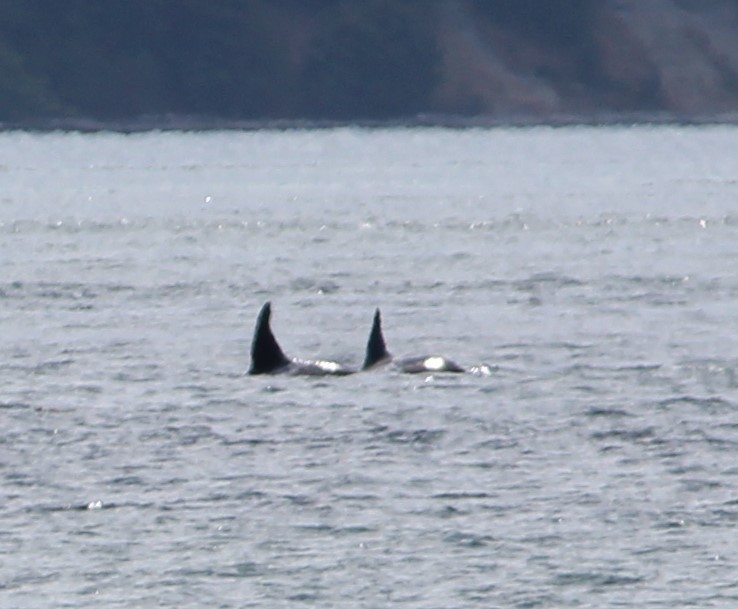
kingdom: Animalia
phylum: Chordata
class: Mammalia
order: Cetacea
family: Delphinidae
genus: Orcinus
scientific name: Orcinus orca
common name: Killer whale
